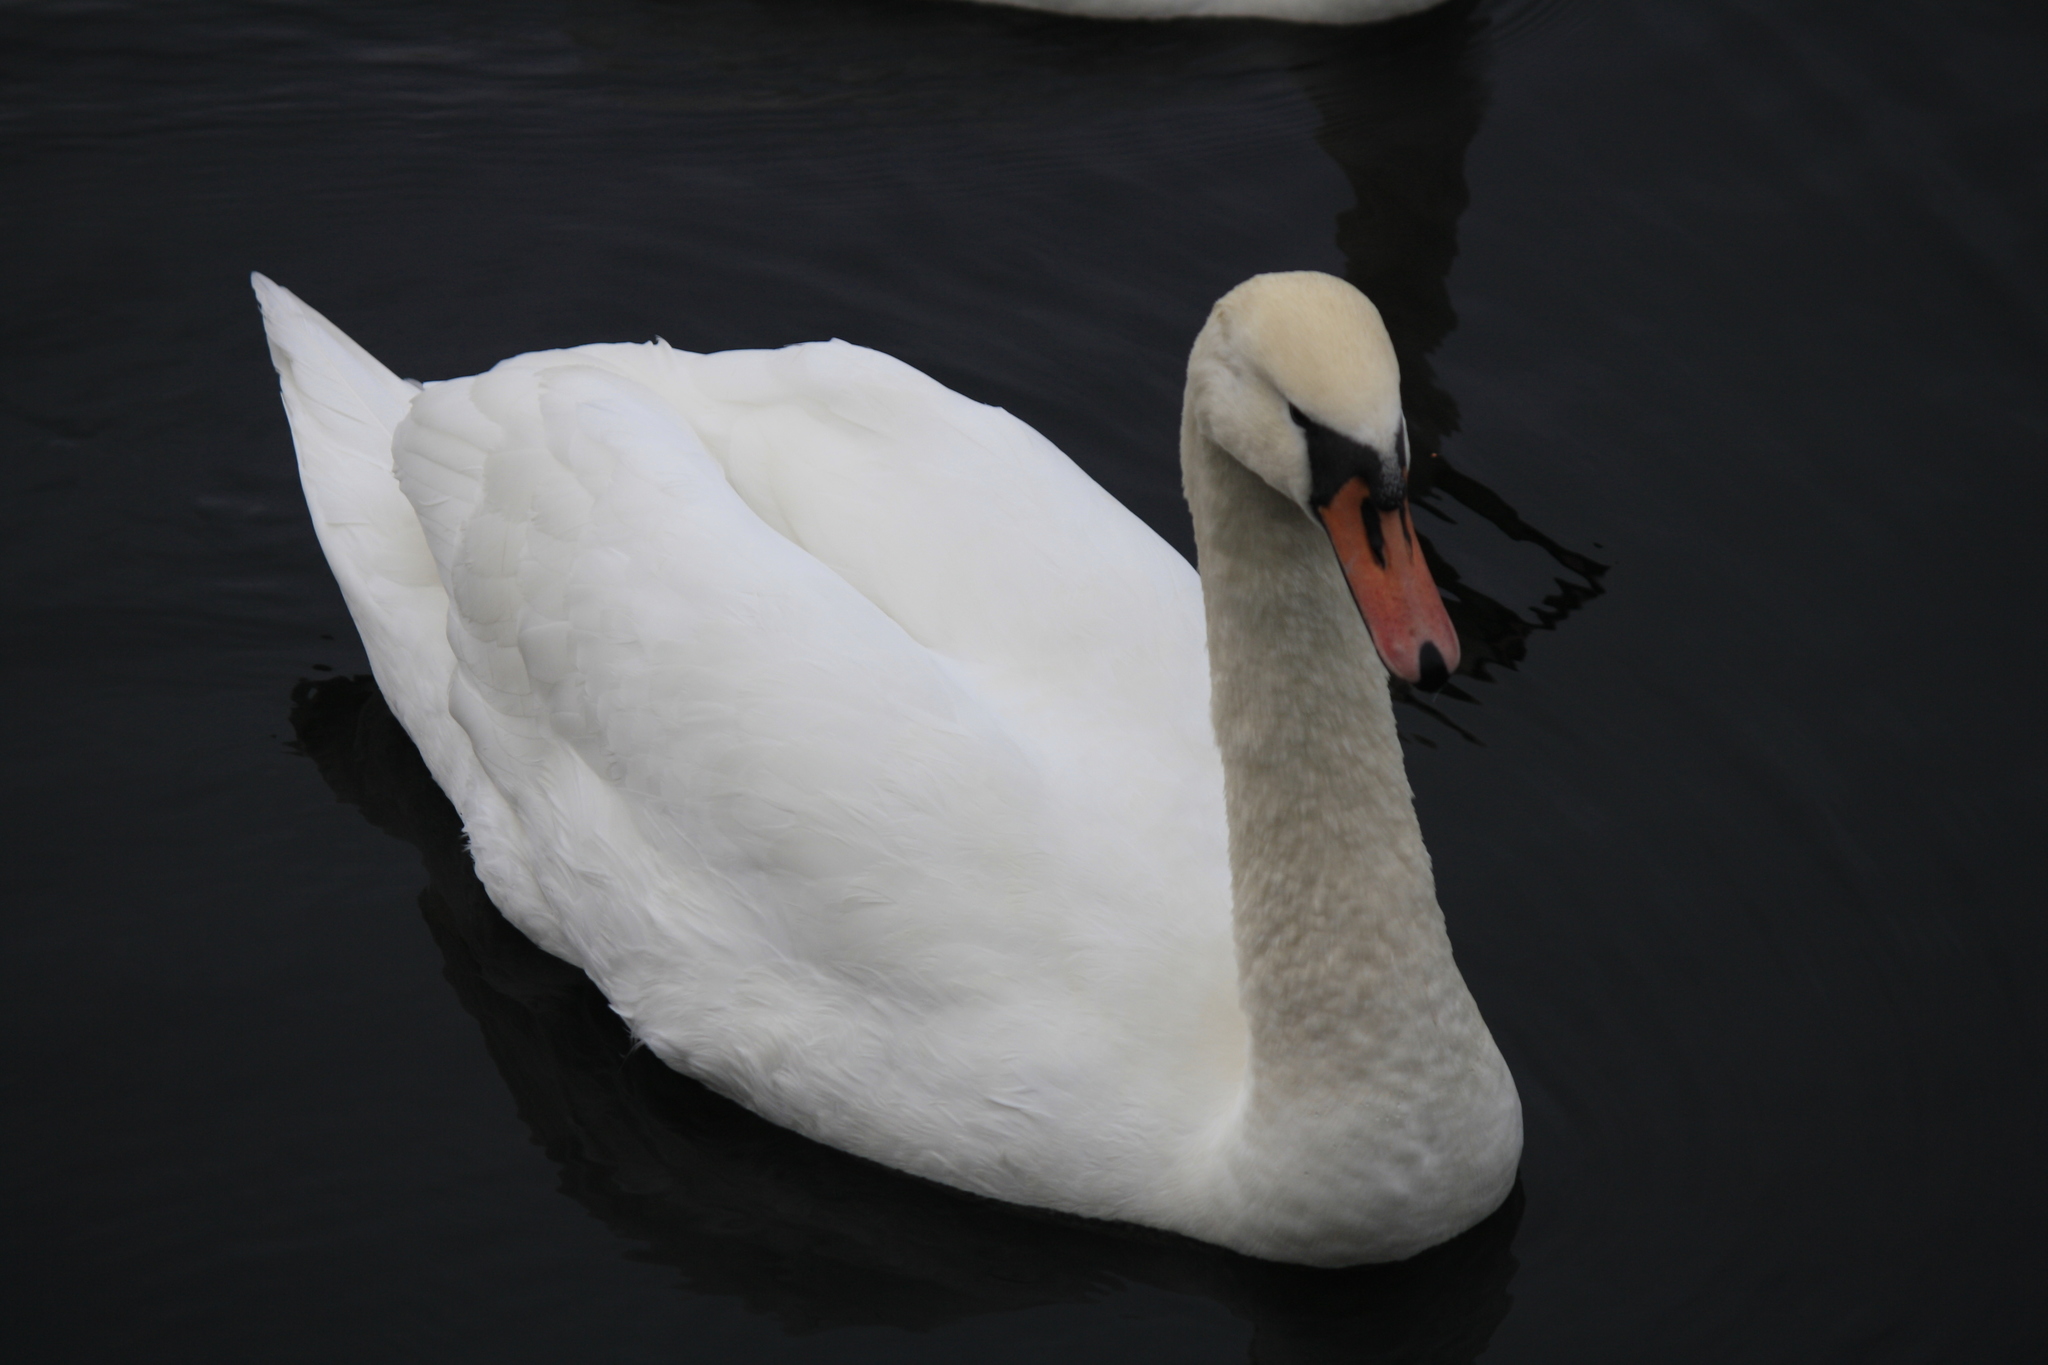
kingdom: Animalia
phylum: Chordata
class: Aves
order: Anseriformes
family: Anatidae
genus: Cygnus
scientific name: Cygnus olor
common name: Mute swan
